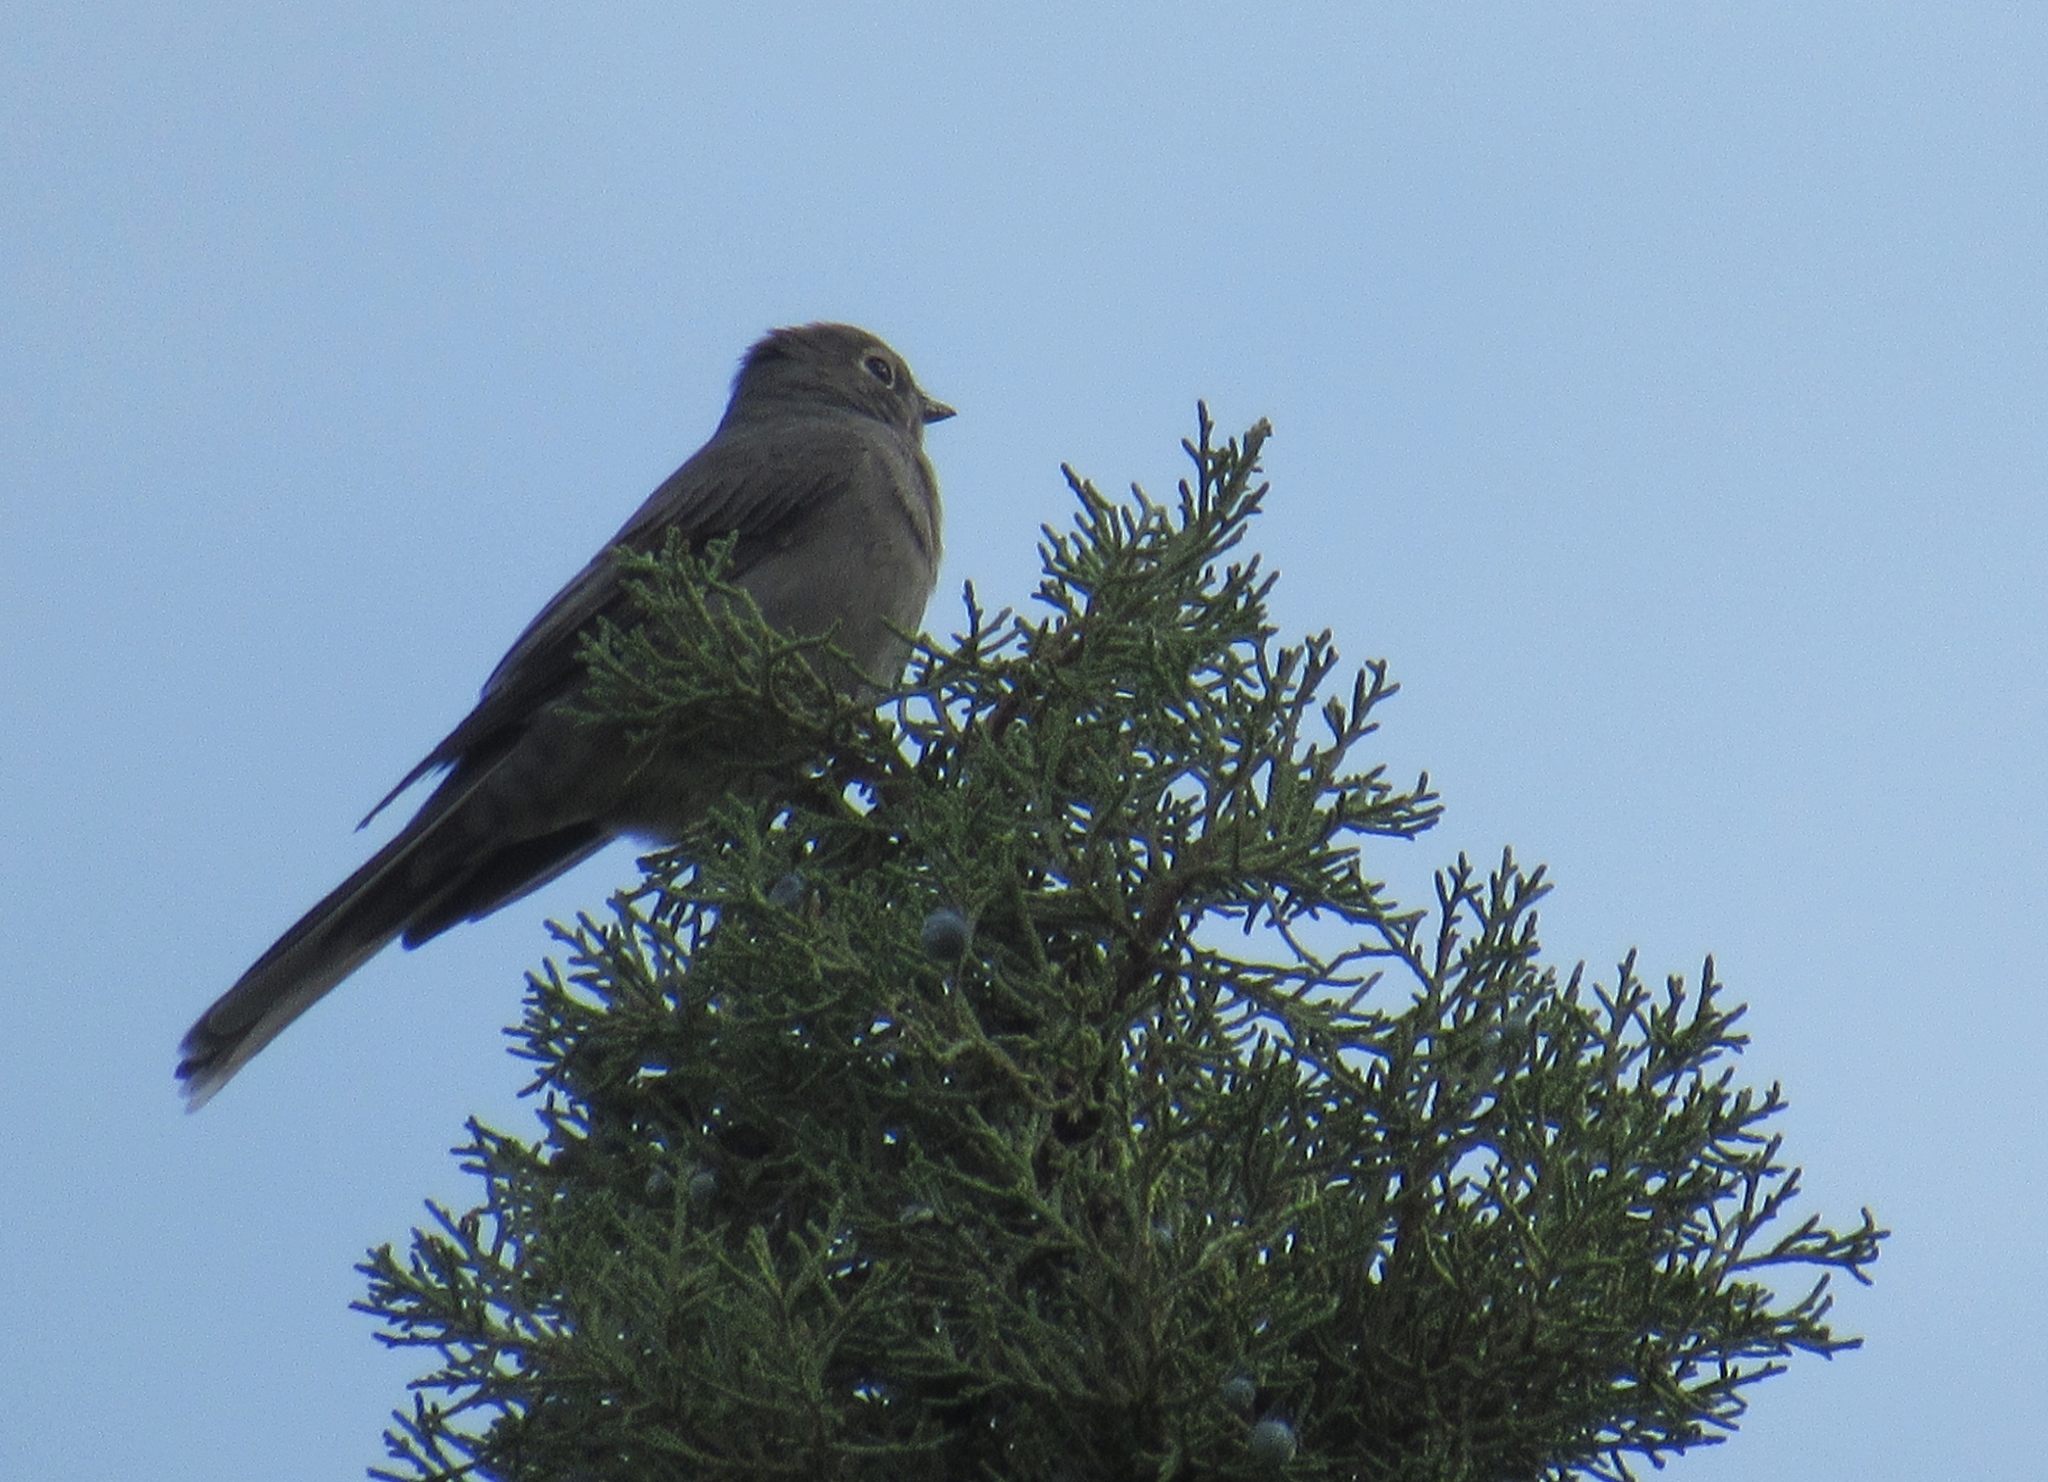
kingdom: Animalia
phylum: Chordata
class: Aves
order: Passeriformes
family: Turdidae
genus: Myadestes
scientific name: Myadestes townsendi
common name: Townsend's solitaire
